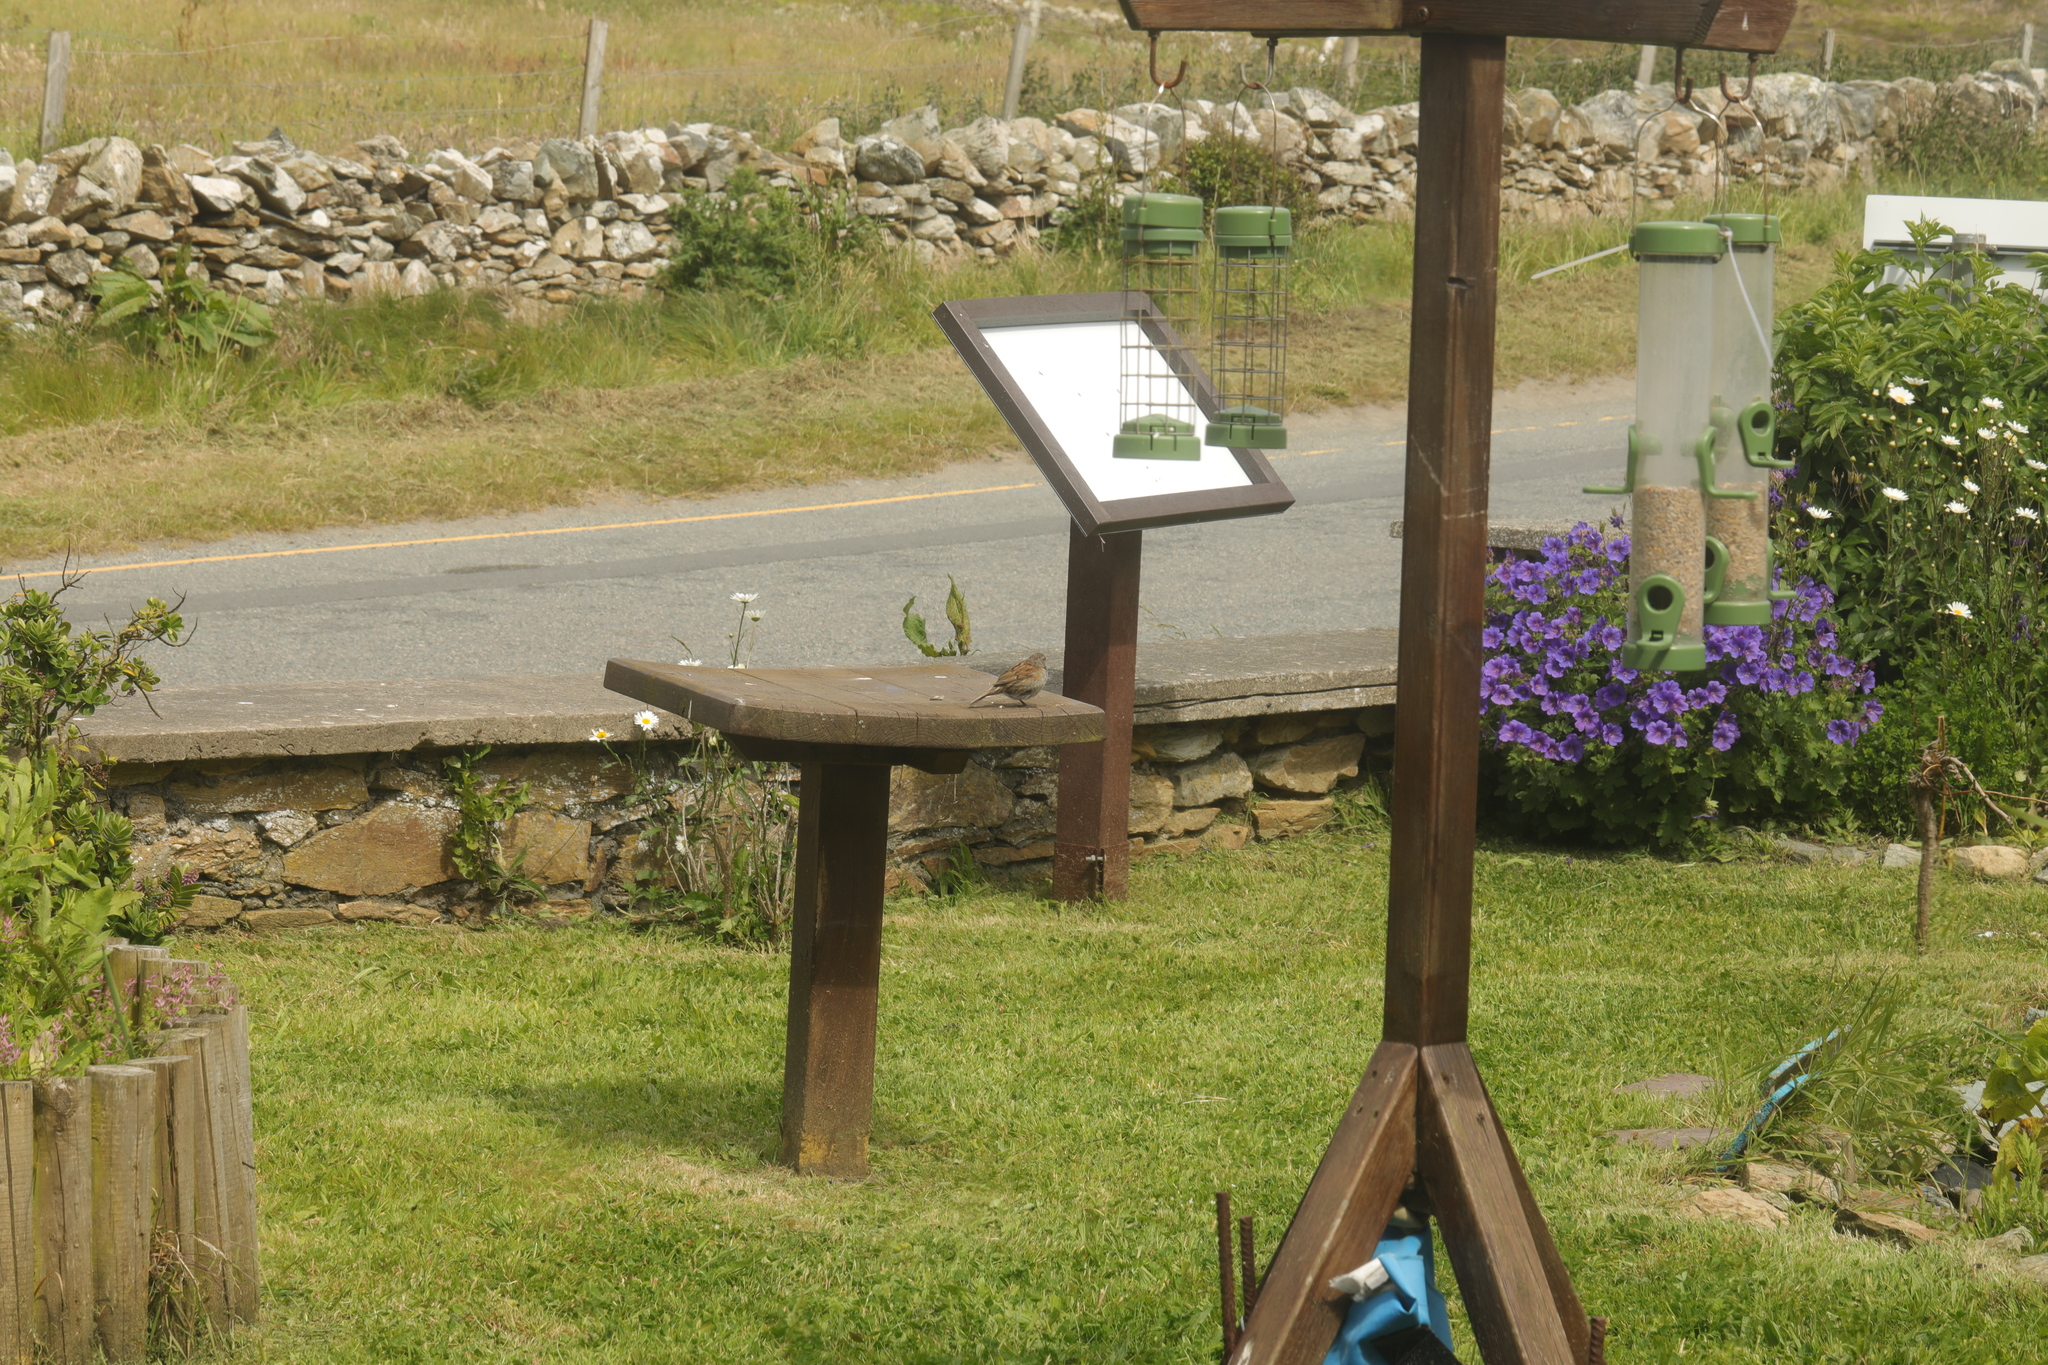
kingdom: Animalia
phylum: Chordata
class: Aves
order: Passeriformes
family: Prunellidae
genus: Prunella
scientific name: Prunella modularis
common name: Dunnock
